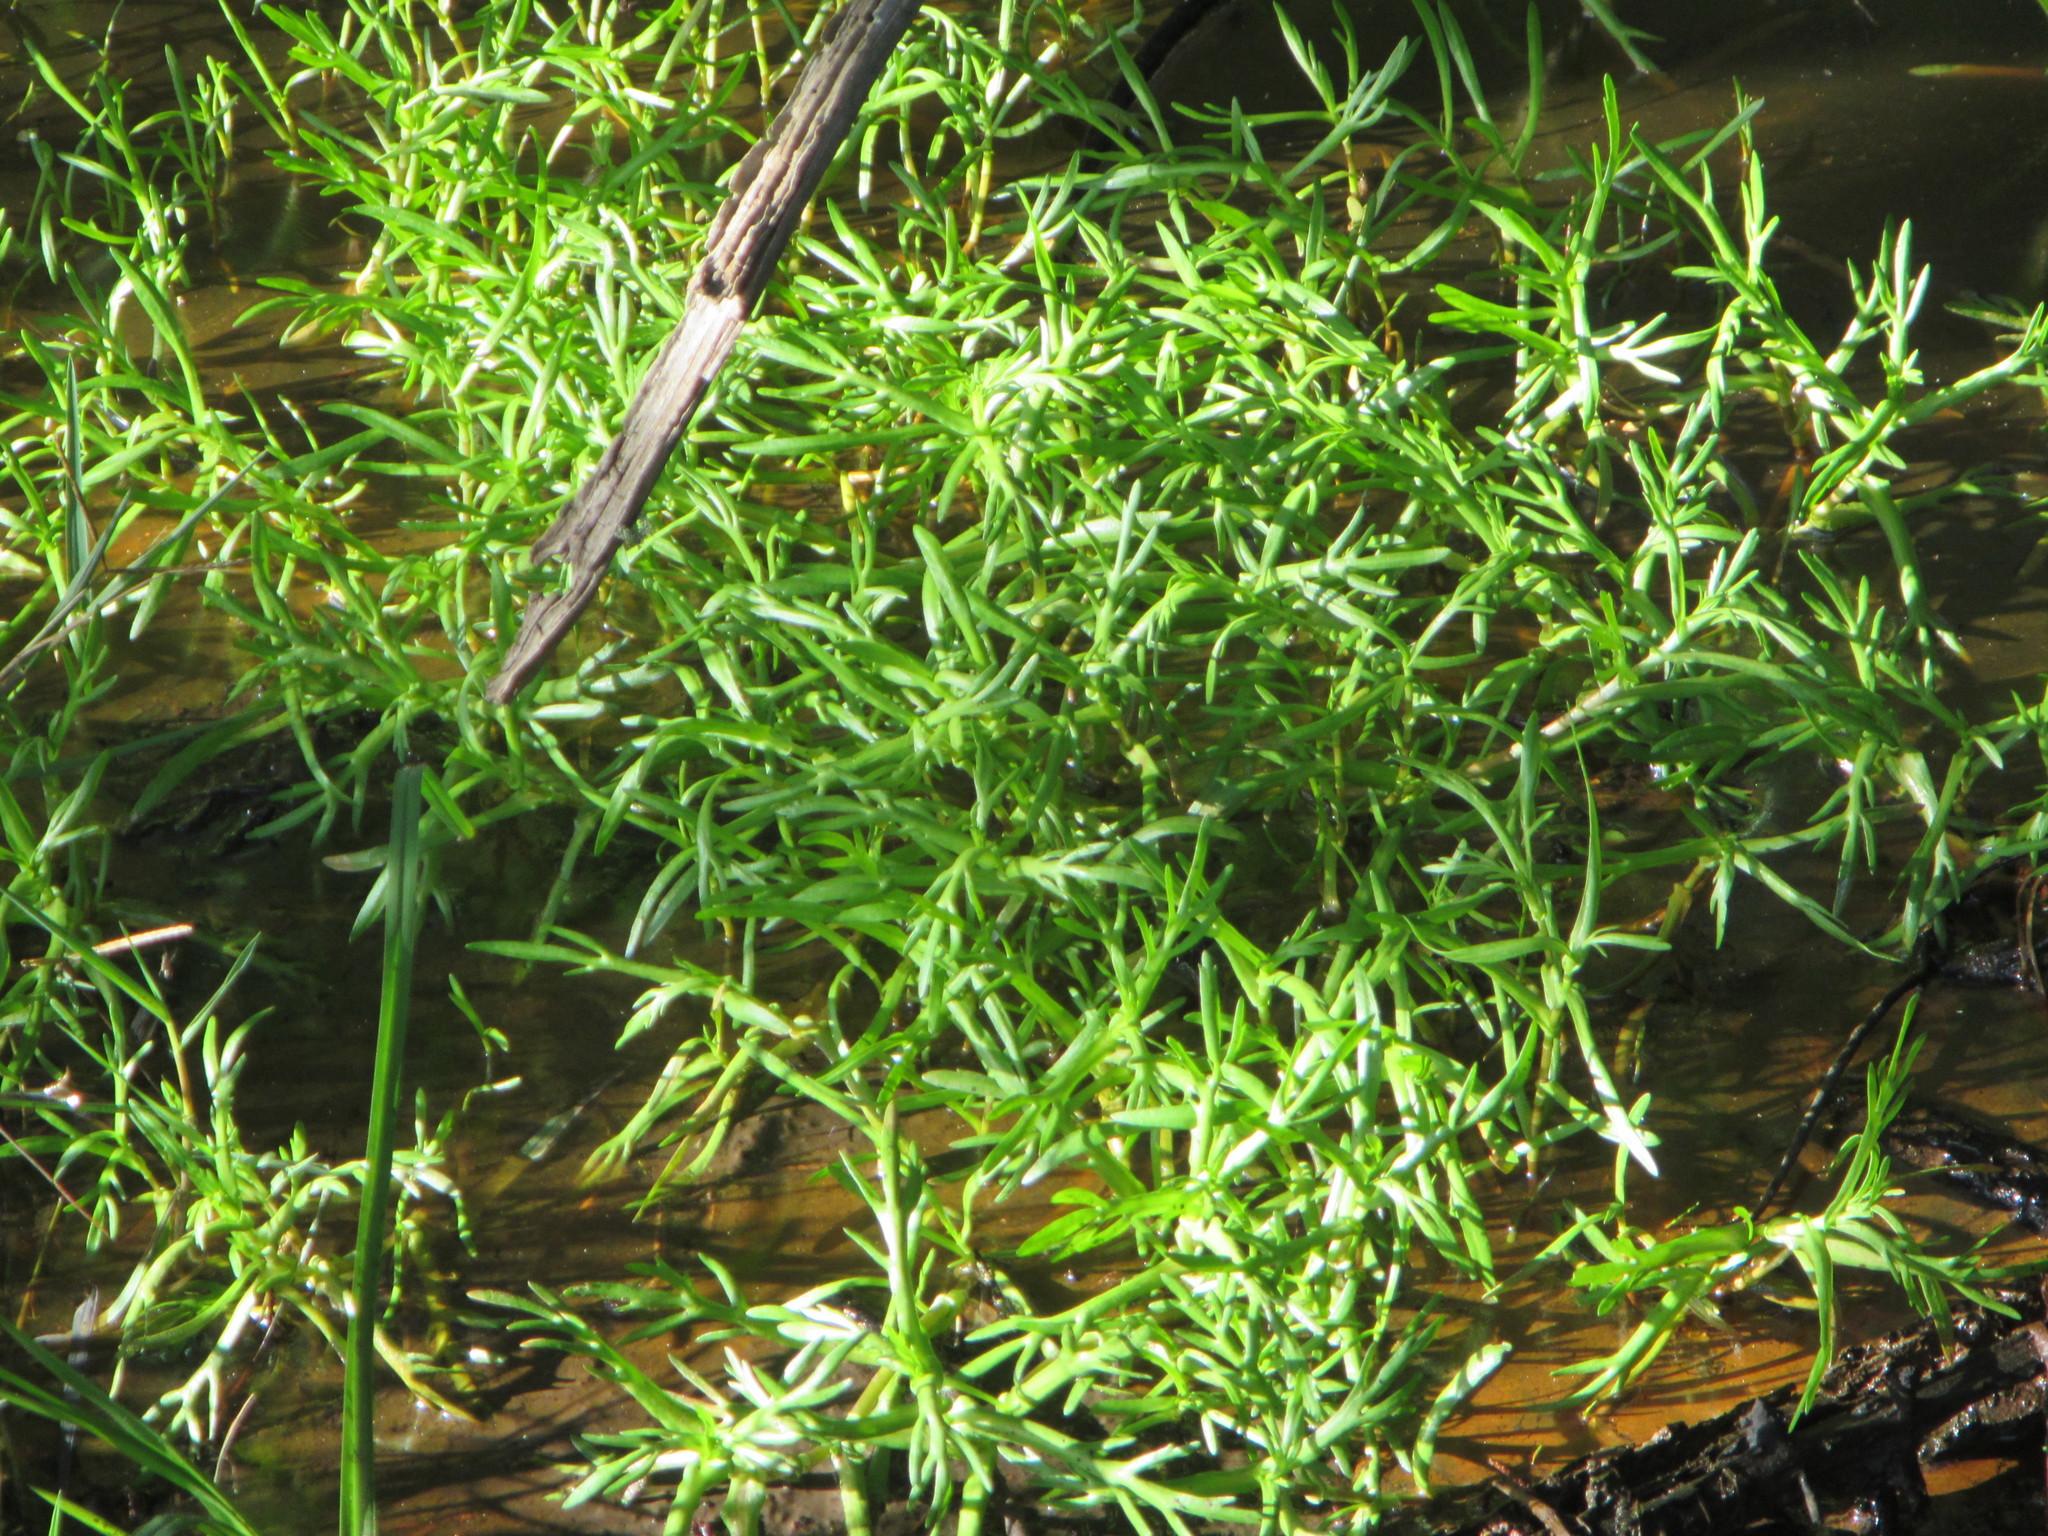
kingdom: Plantae
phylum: Tracheophyta
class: Magnoliopsida
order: Saxifragales
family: Haloragaceae
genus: Myriophyllum
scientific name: Myriophyllum propinquum
